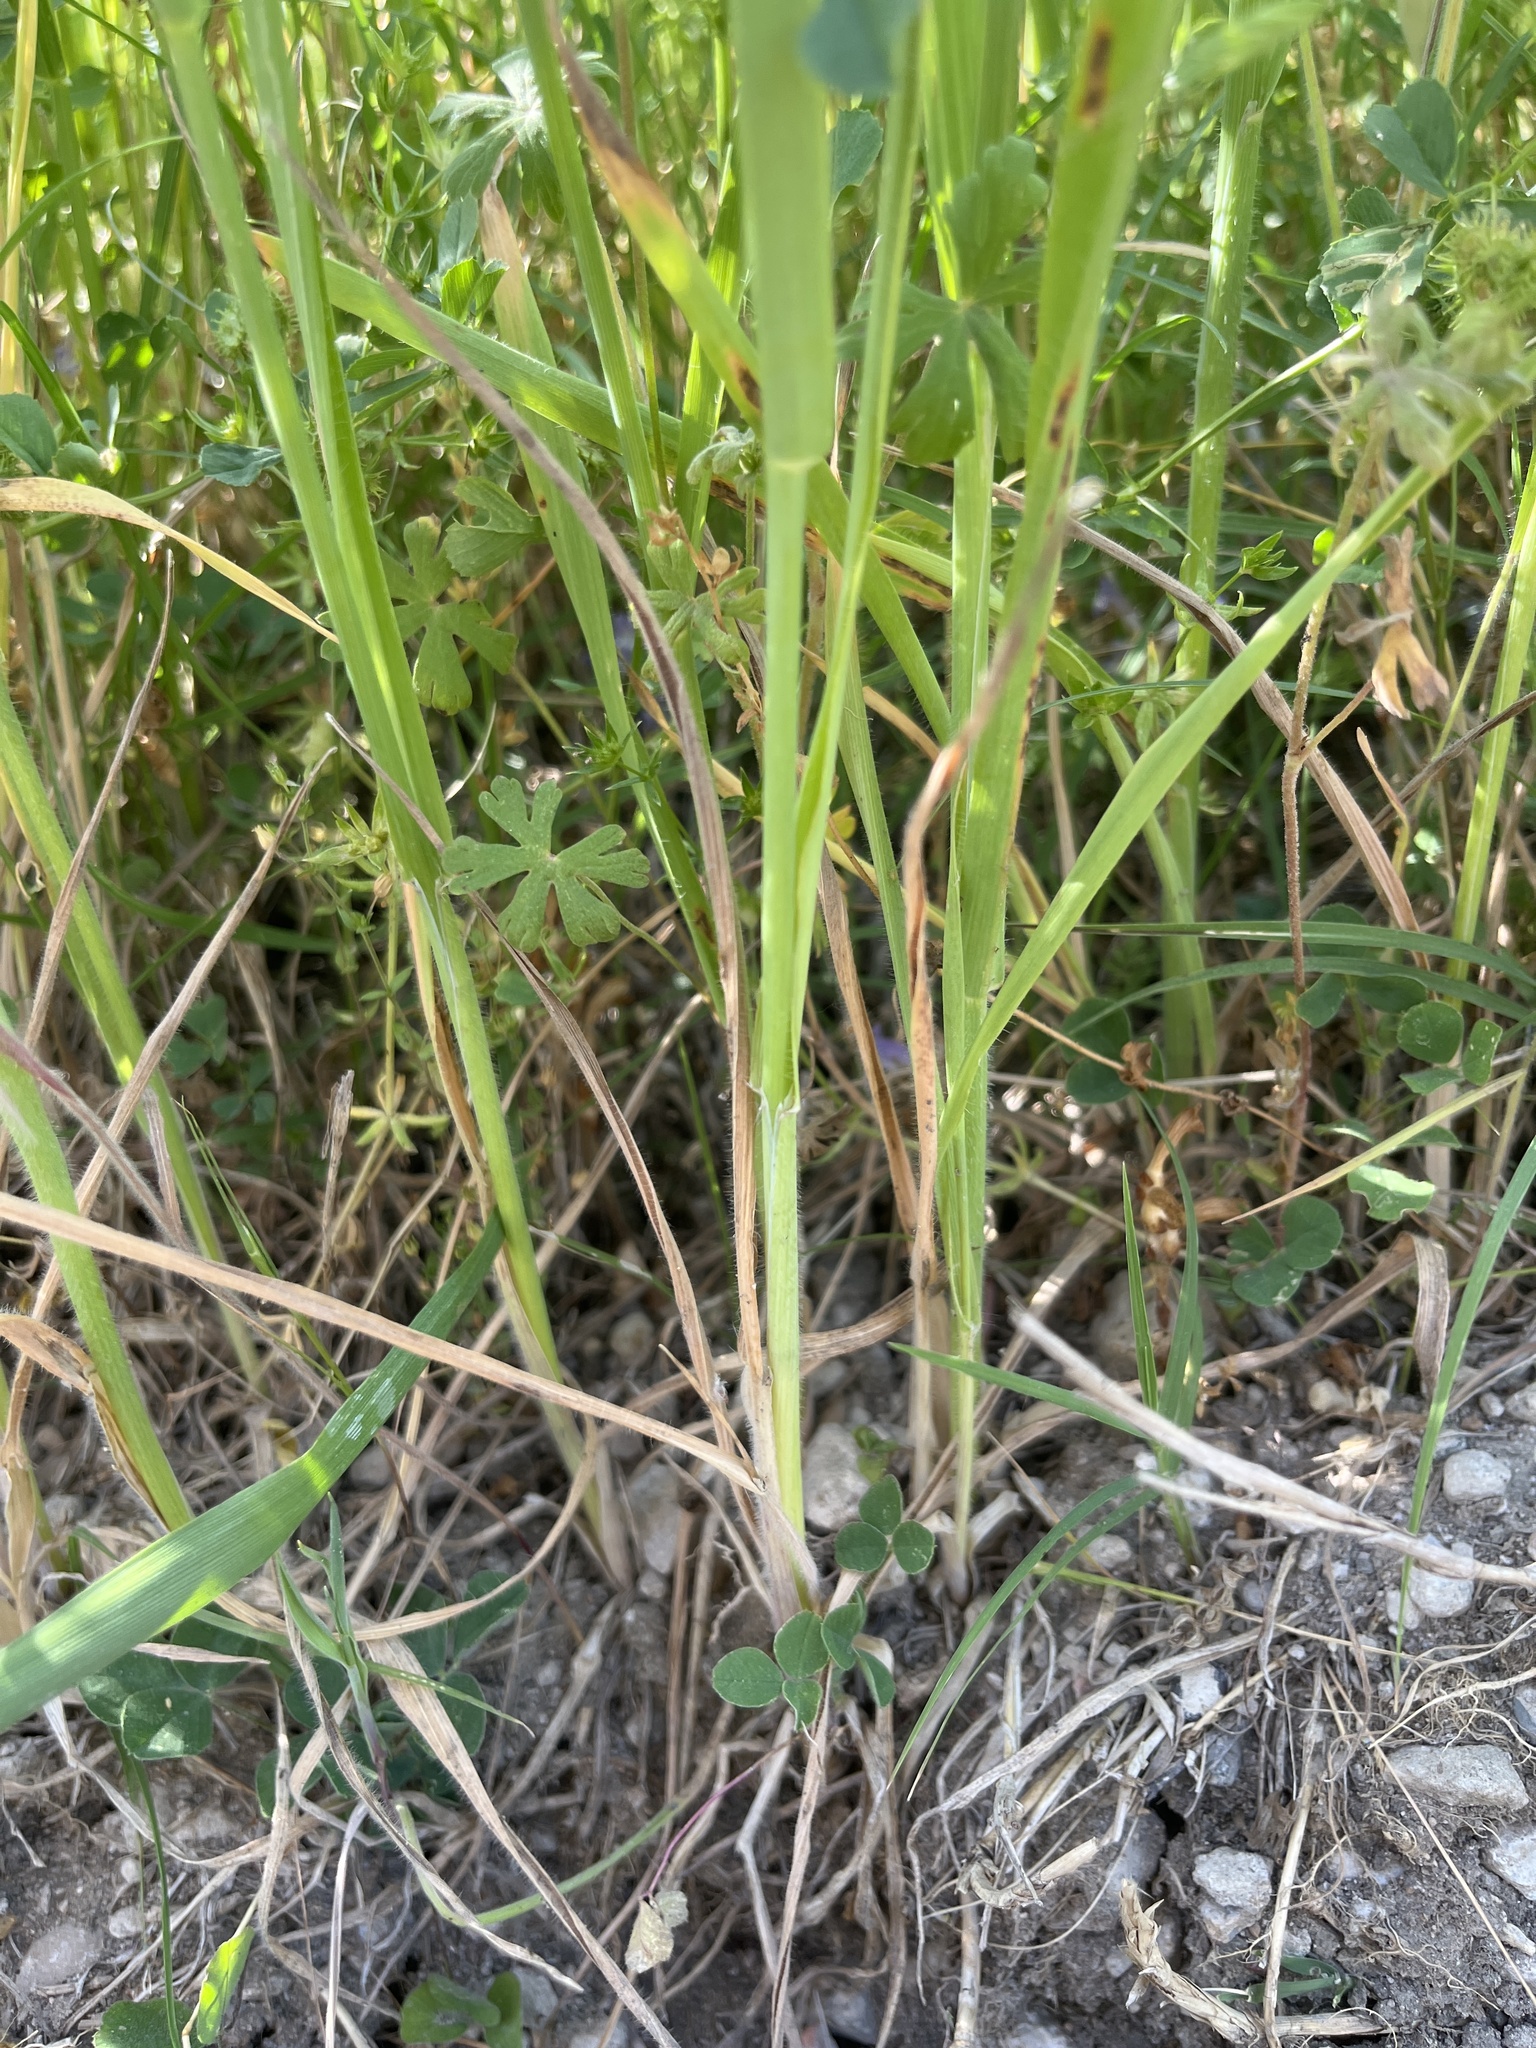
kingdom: Plantae
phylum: Tracheophyta
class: Liliopsida
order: Poales
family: Poaceae
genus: Avena
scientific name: Avena fatua
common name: Wild oat
